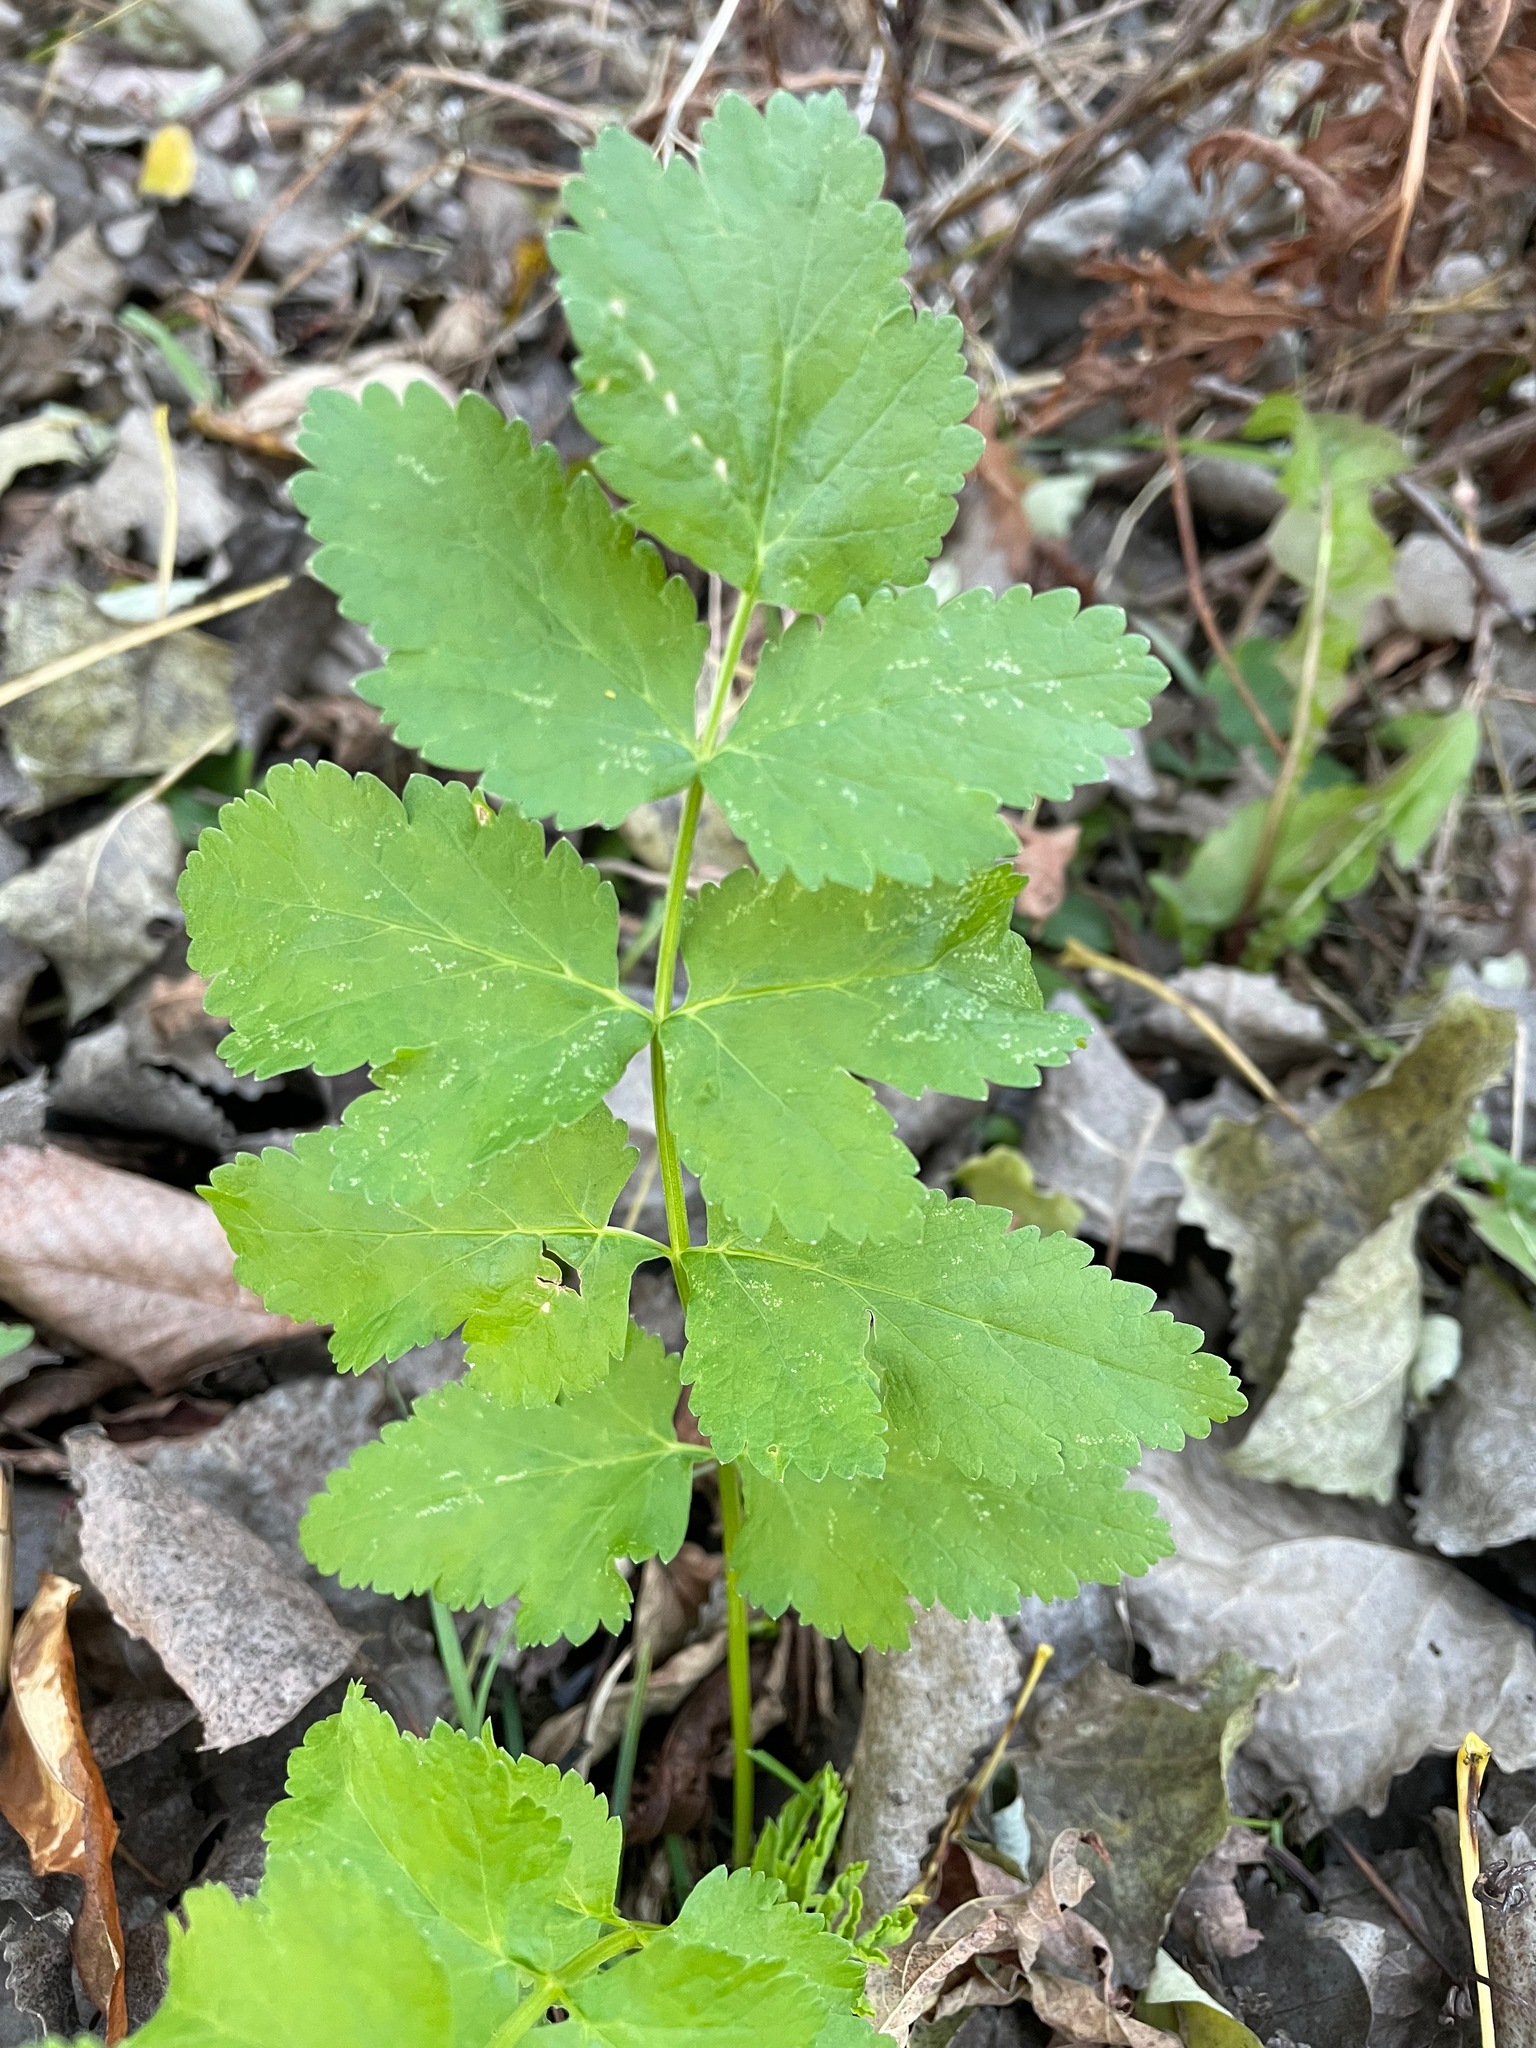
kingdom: Plantae
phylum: Tracheophyta
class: Magnoliopsida
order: Apiales
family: Apiaceae
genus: Pastinaca
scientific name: Pastinaca sativa
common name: Wild parsnip
